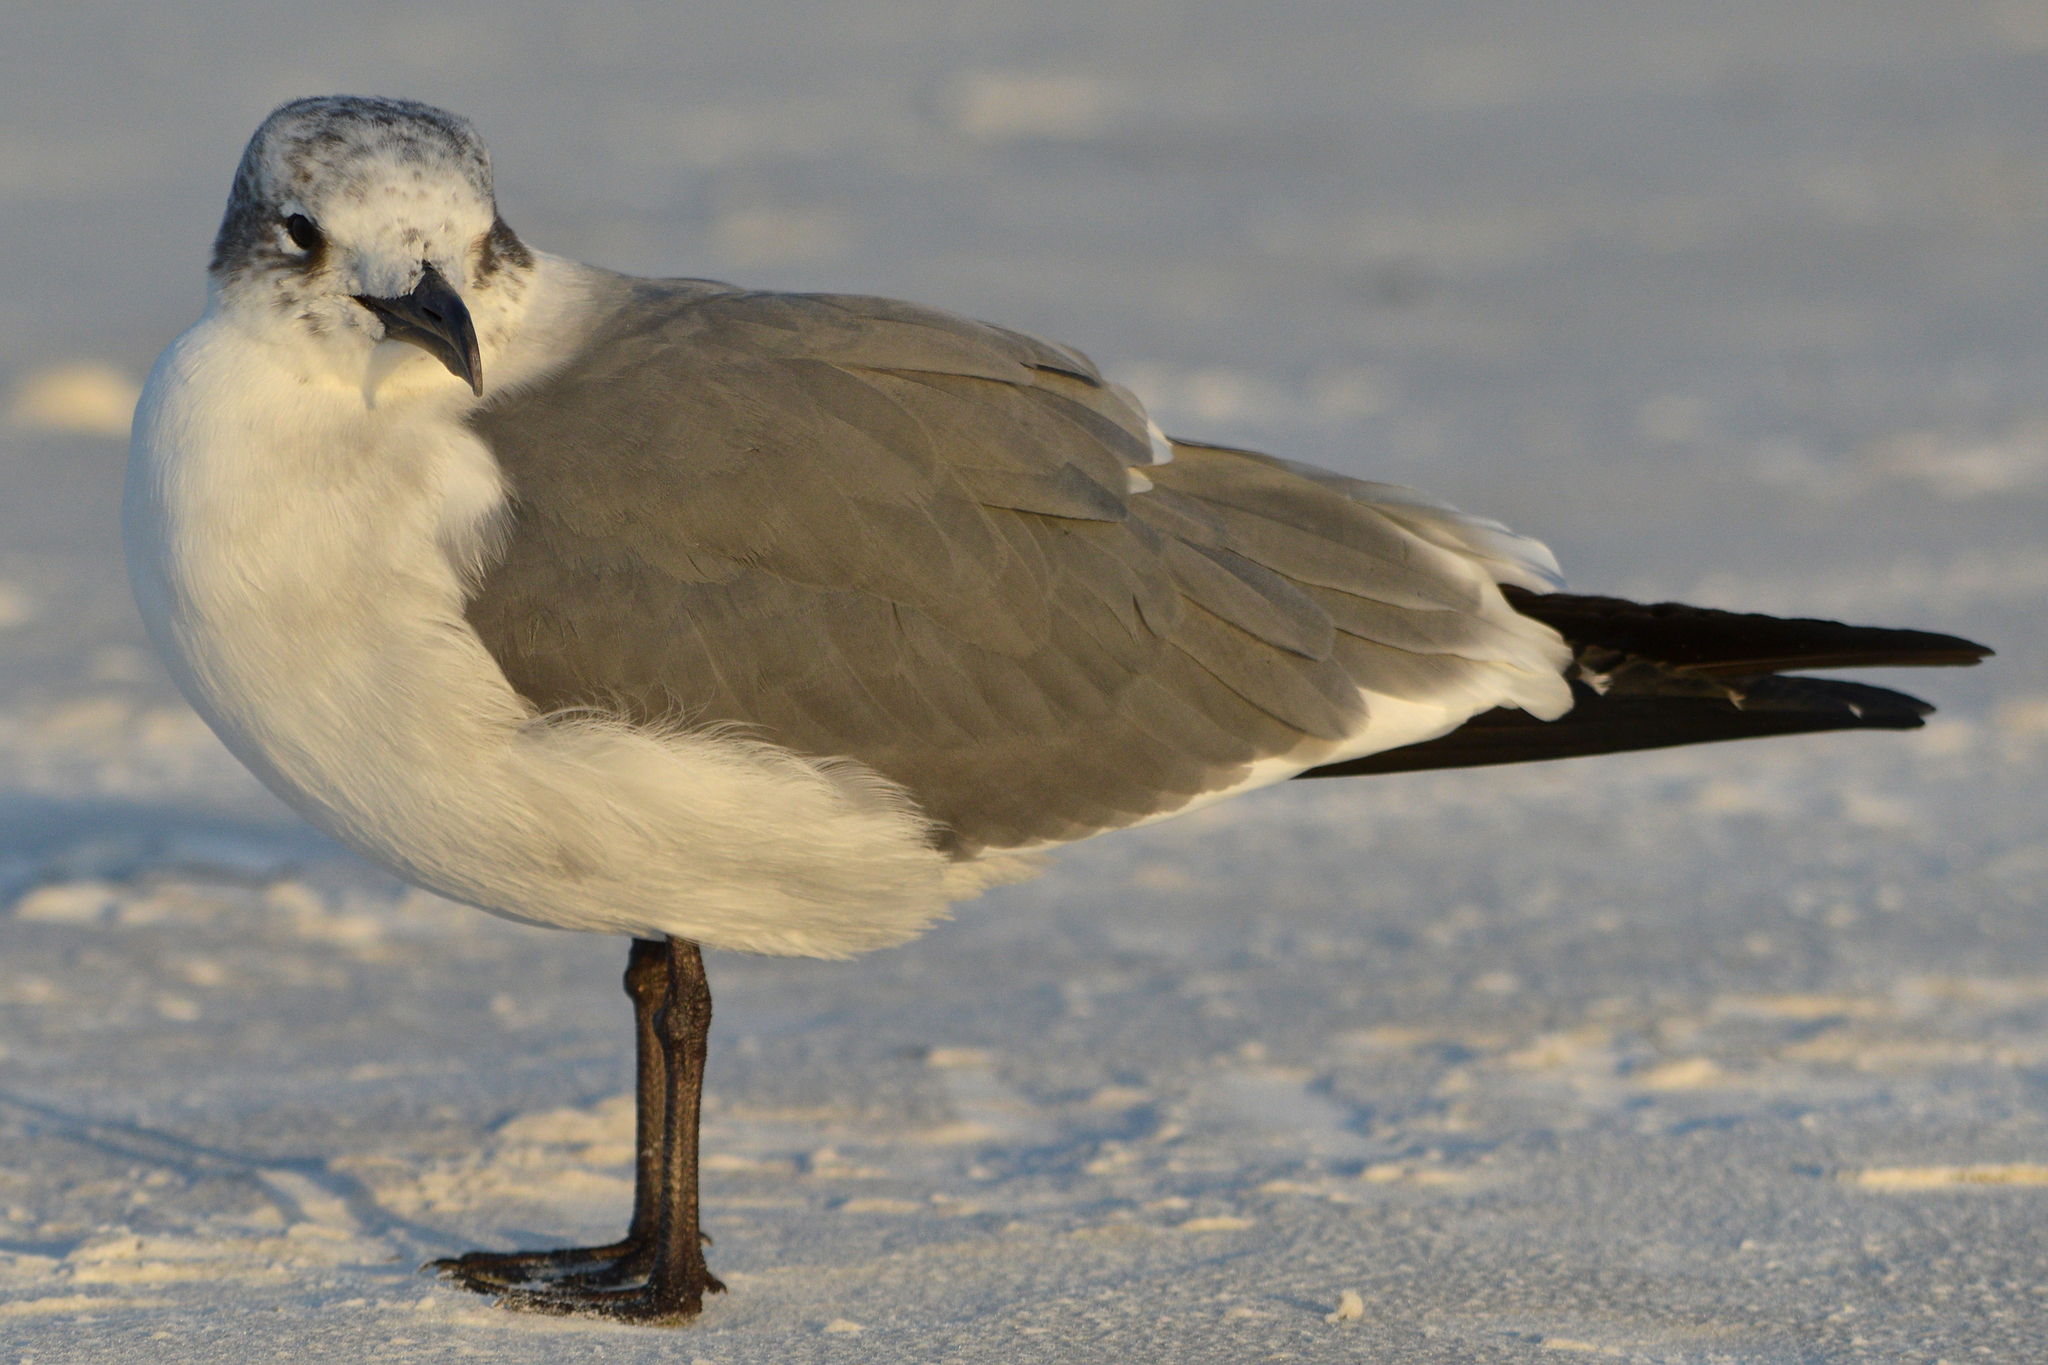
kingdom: Animalia
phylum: Chordata
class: Aves
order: Charadriiformes
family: Laridae
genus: Leucophaeus
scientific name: Leucophaeus atricilla
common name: Laughing gull
